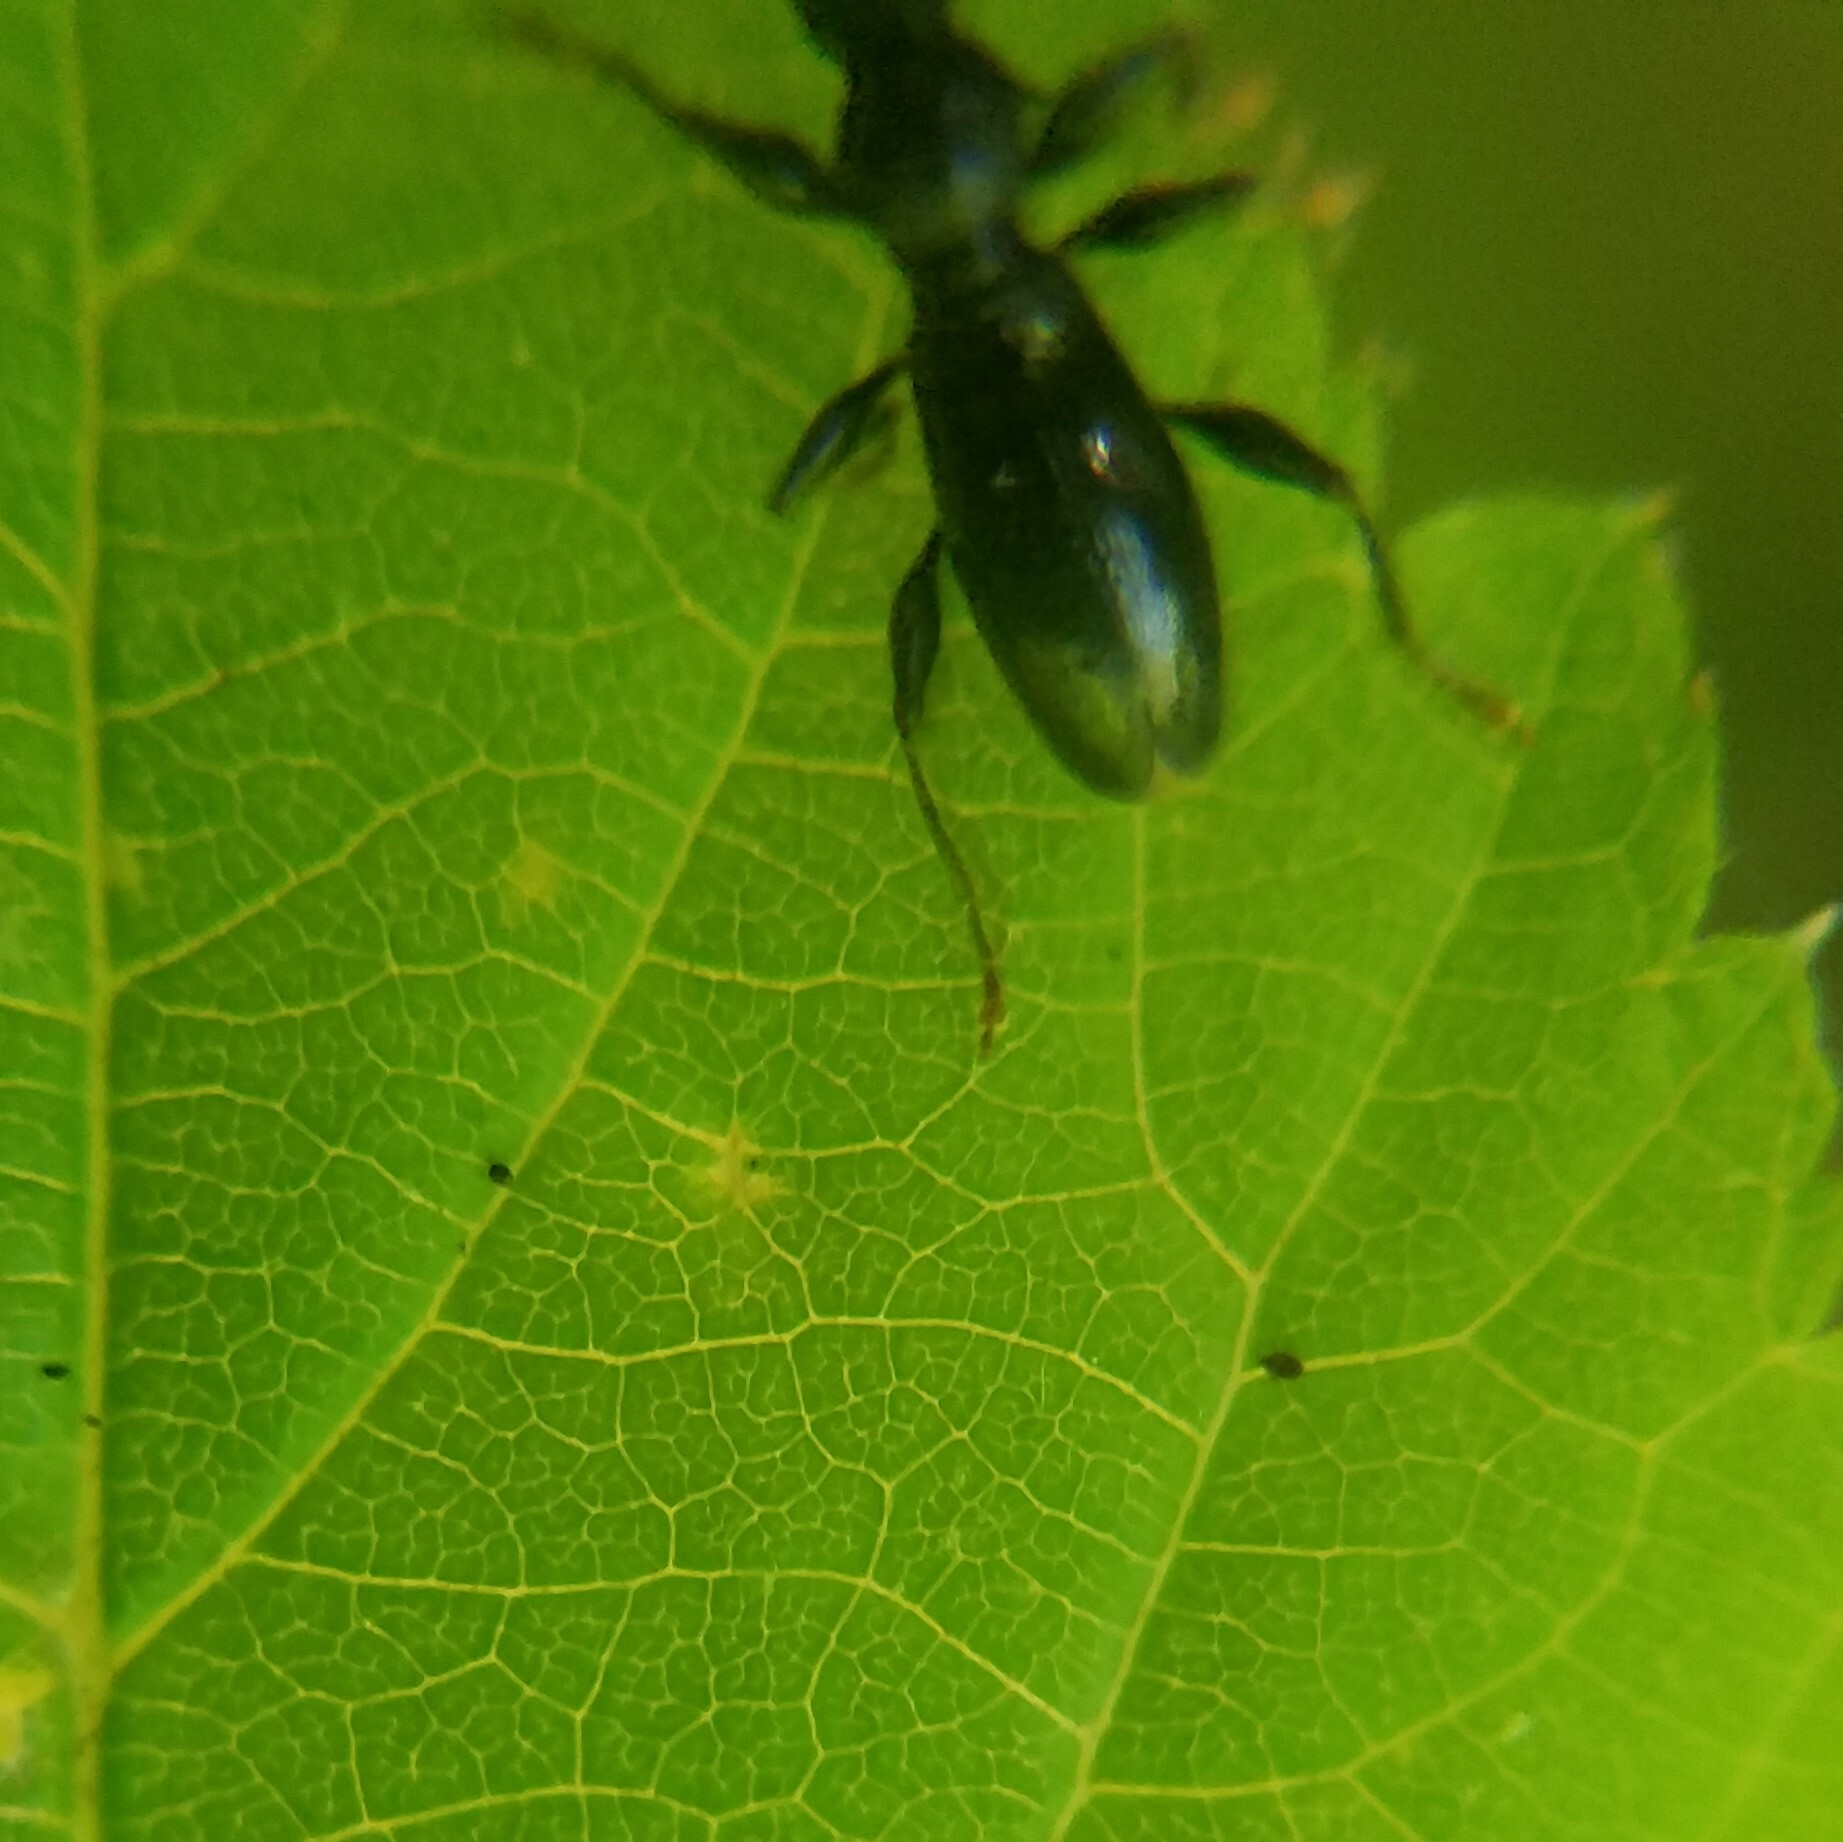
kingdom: Animalia
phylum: Arthropoda
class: Insecta
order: Coleoptera
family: Cerambycidae
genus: Michthisoma
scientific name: Michthisoma heterodoxum
